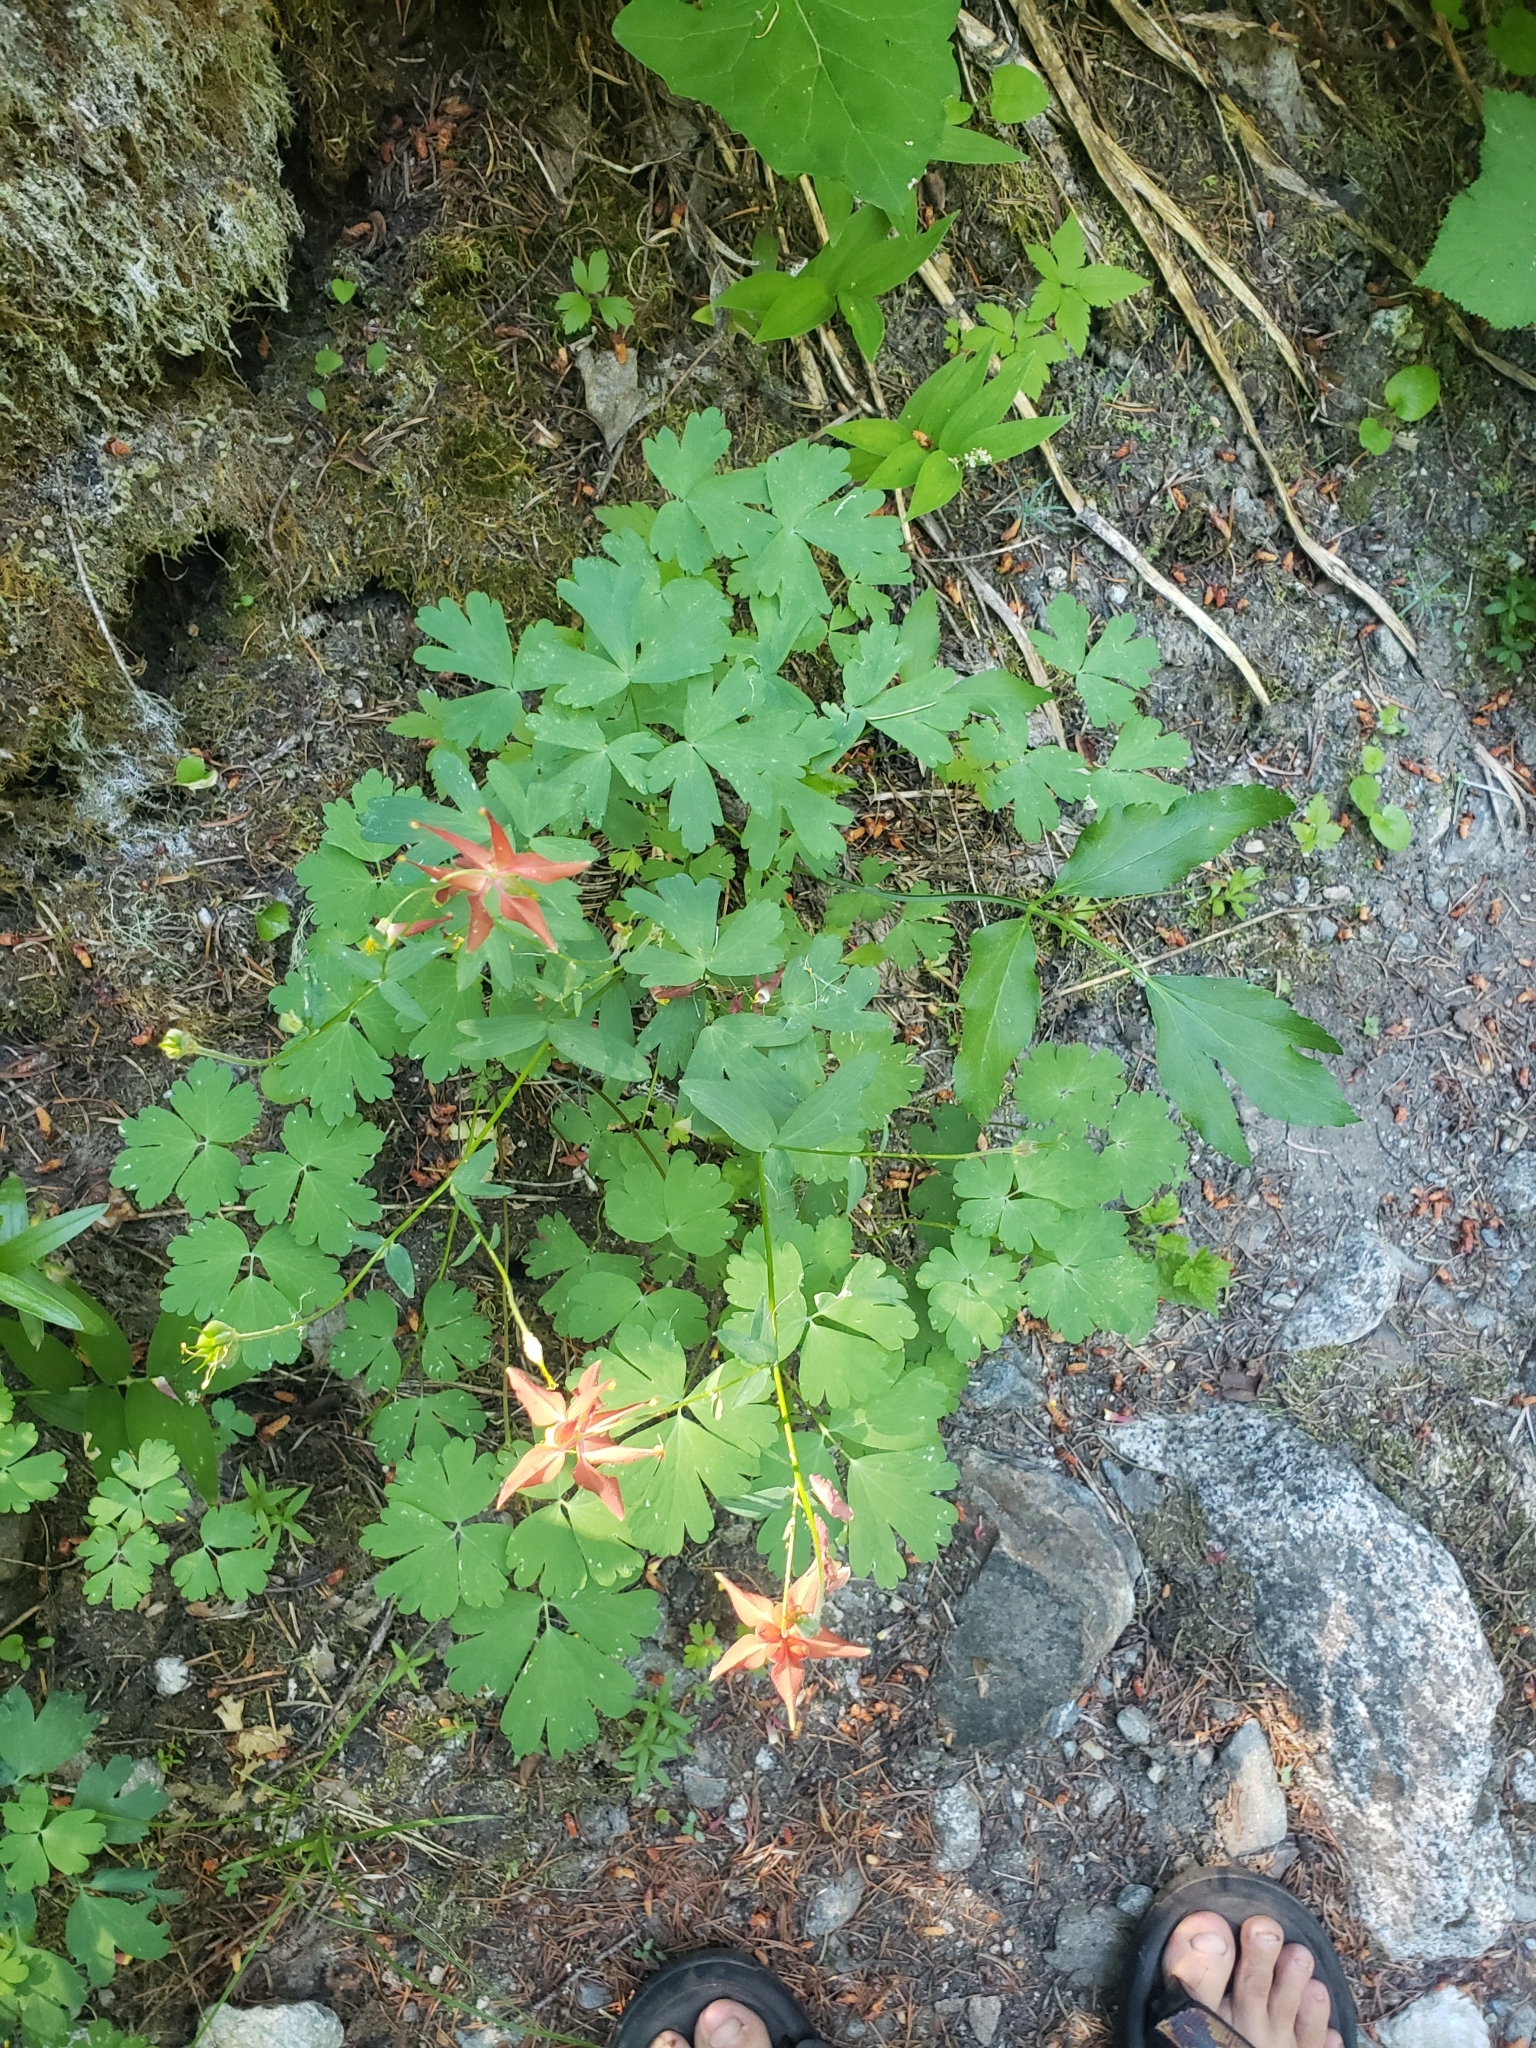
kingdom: Plantae
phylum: Tracheophyta
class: Magnoliopsida
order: Ranunculales
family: Ranunculaceae
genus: Aquilegia
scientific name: Aquilegia formosa
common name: Sitka columbine
